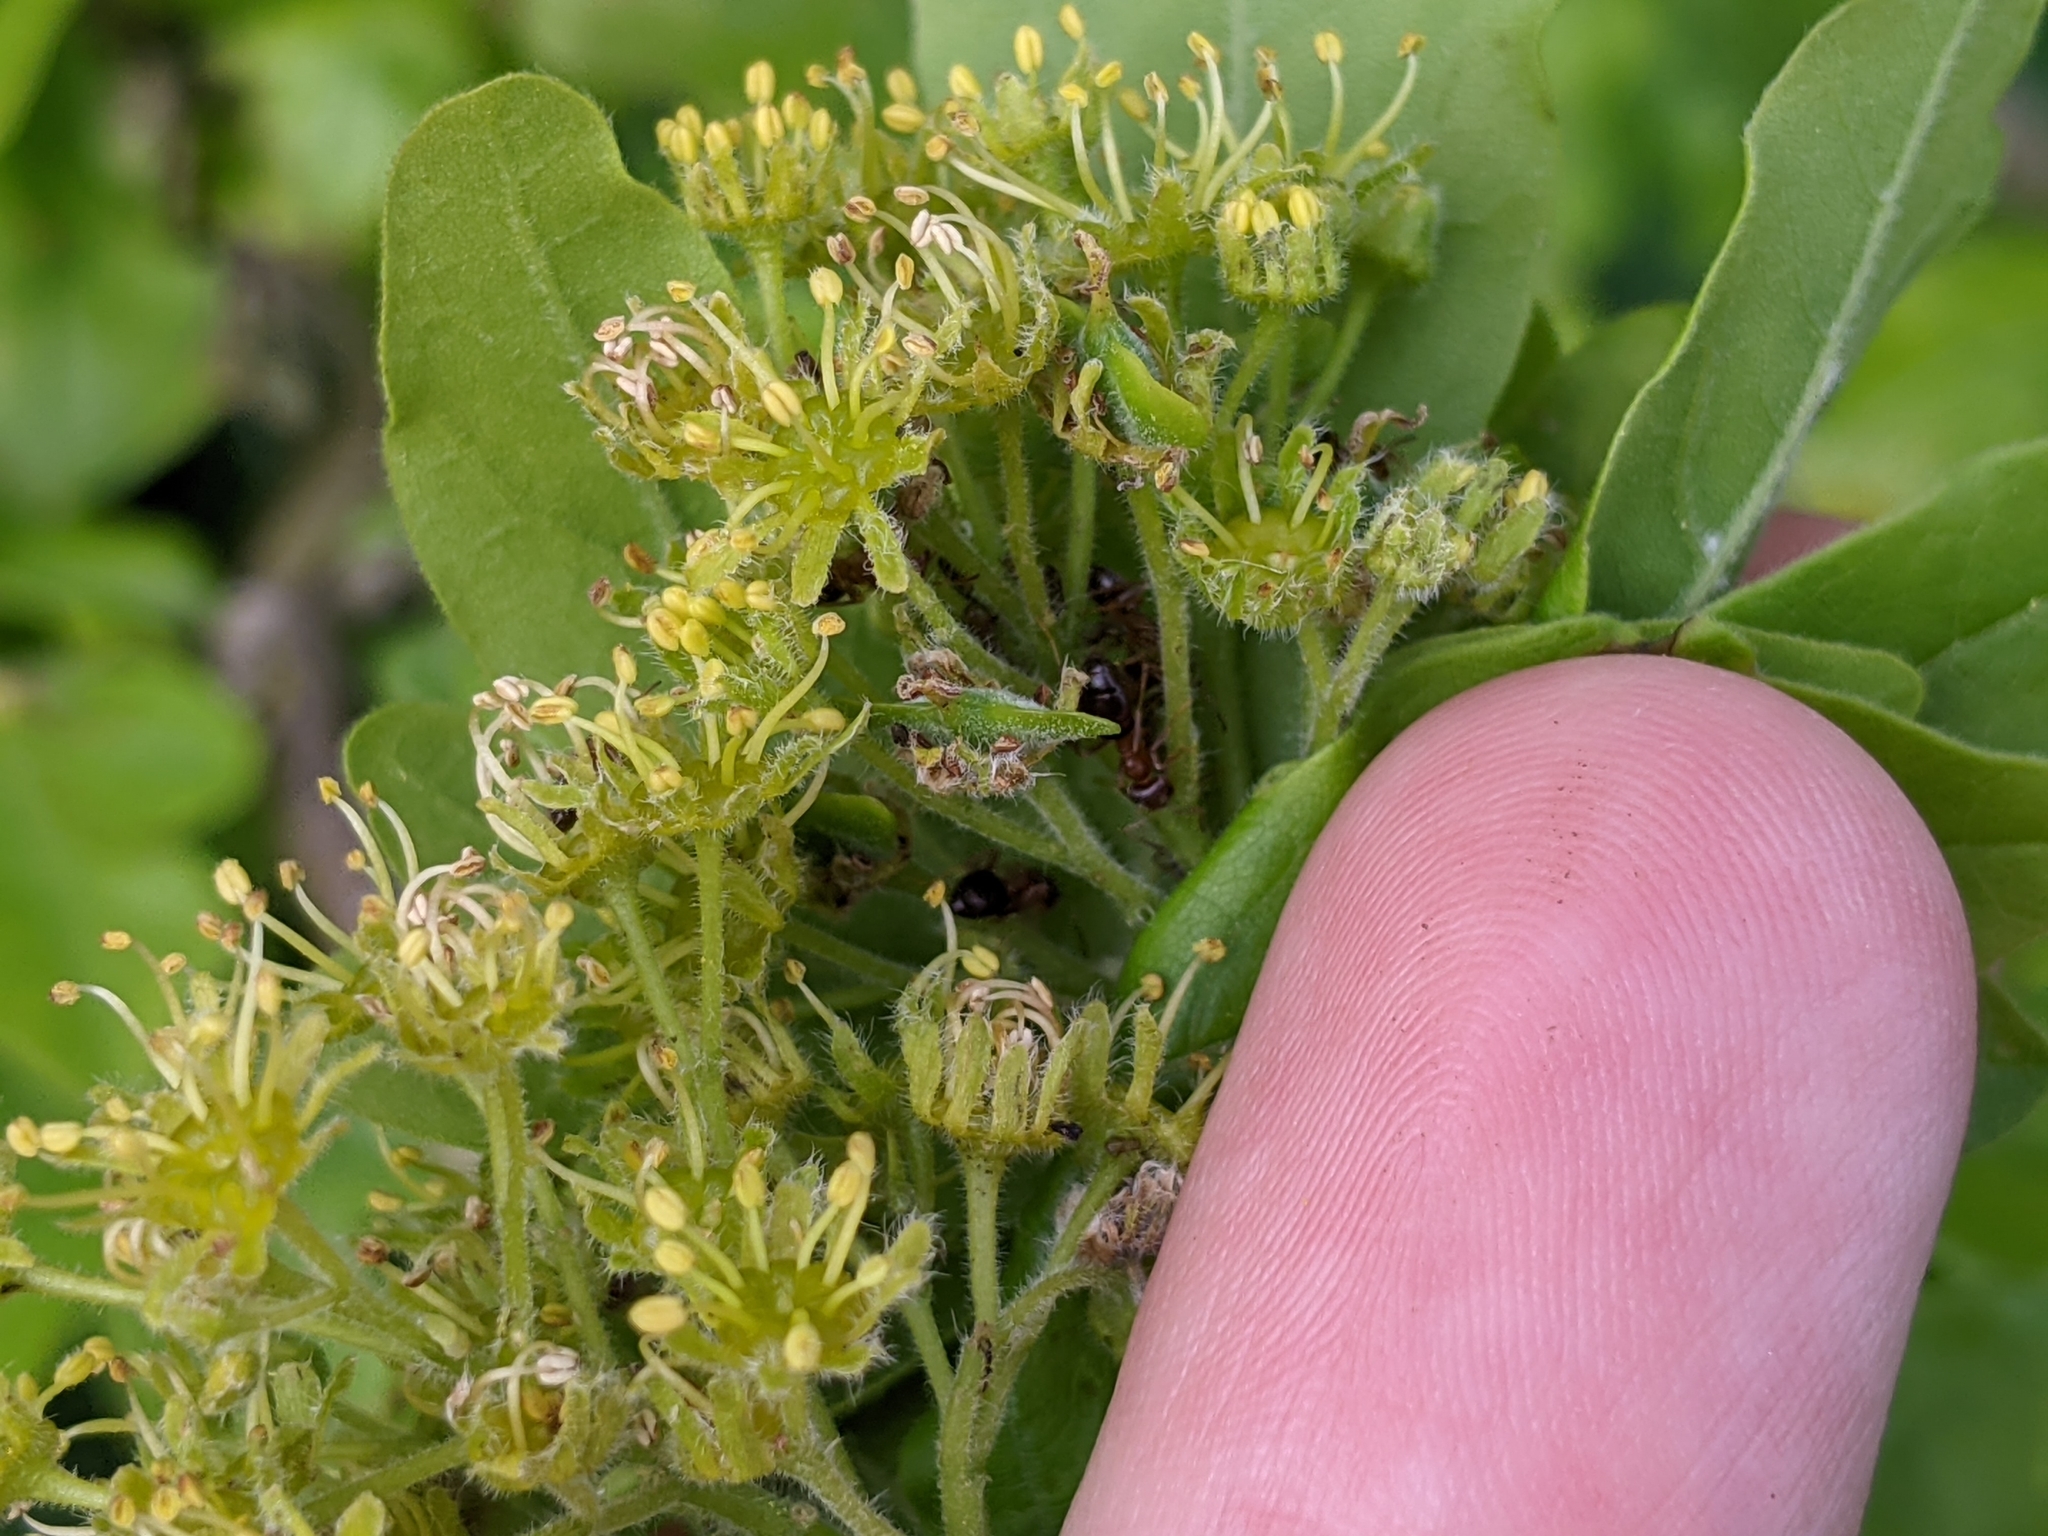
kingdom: Plantae
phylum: Tracheophyta
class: Magnoliopsida
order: Sapindales
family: Sapindaceae
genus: Acer
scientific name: Acer campestre
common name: Field maple
